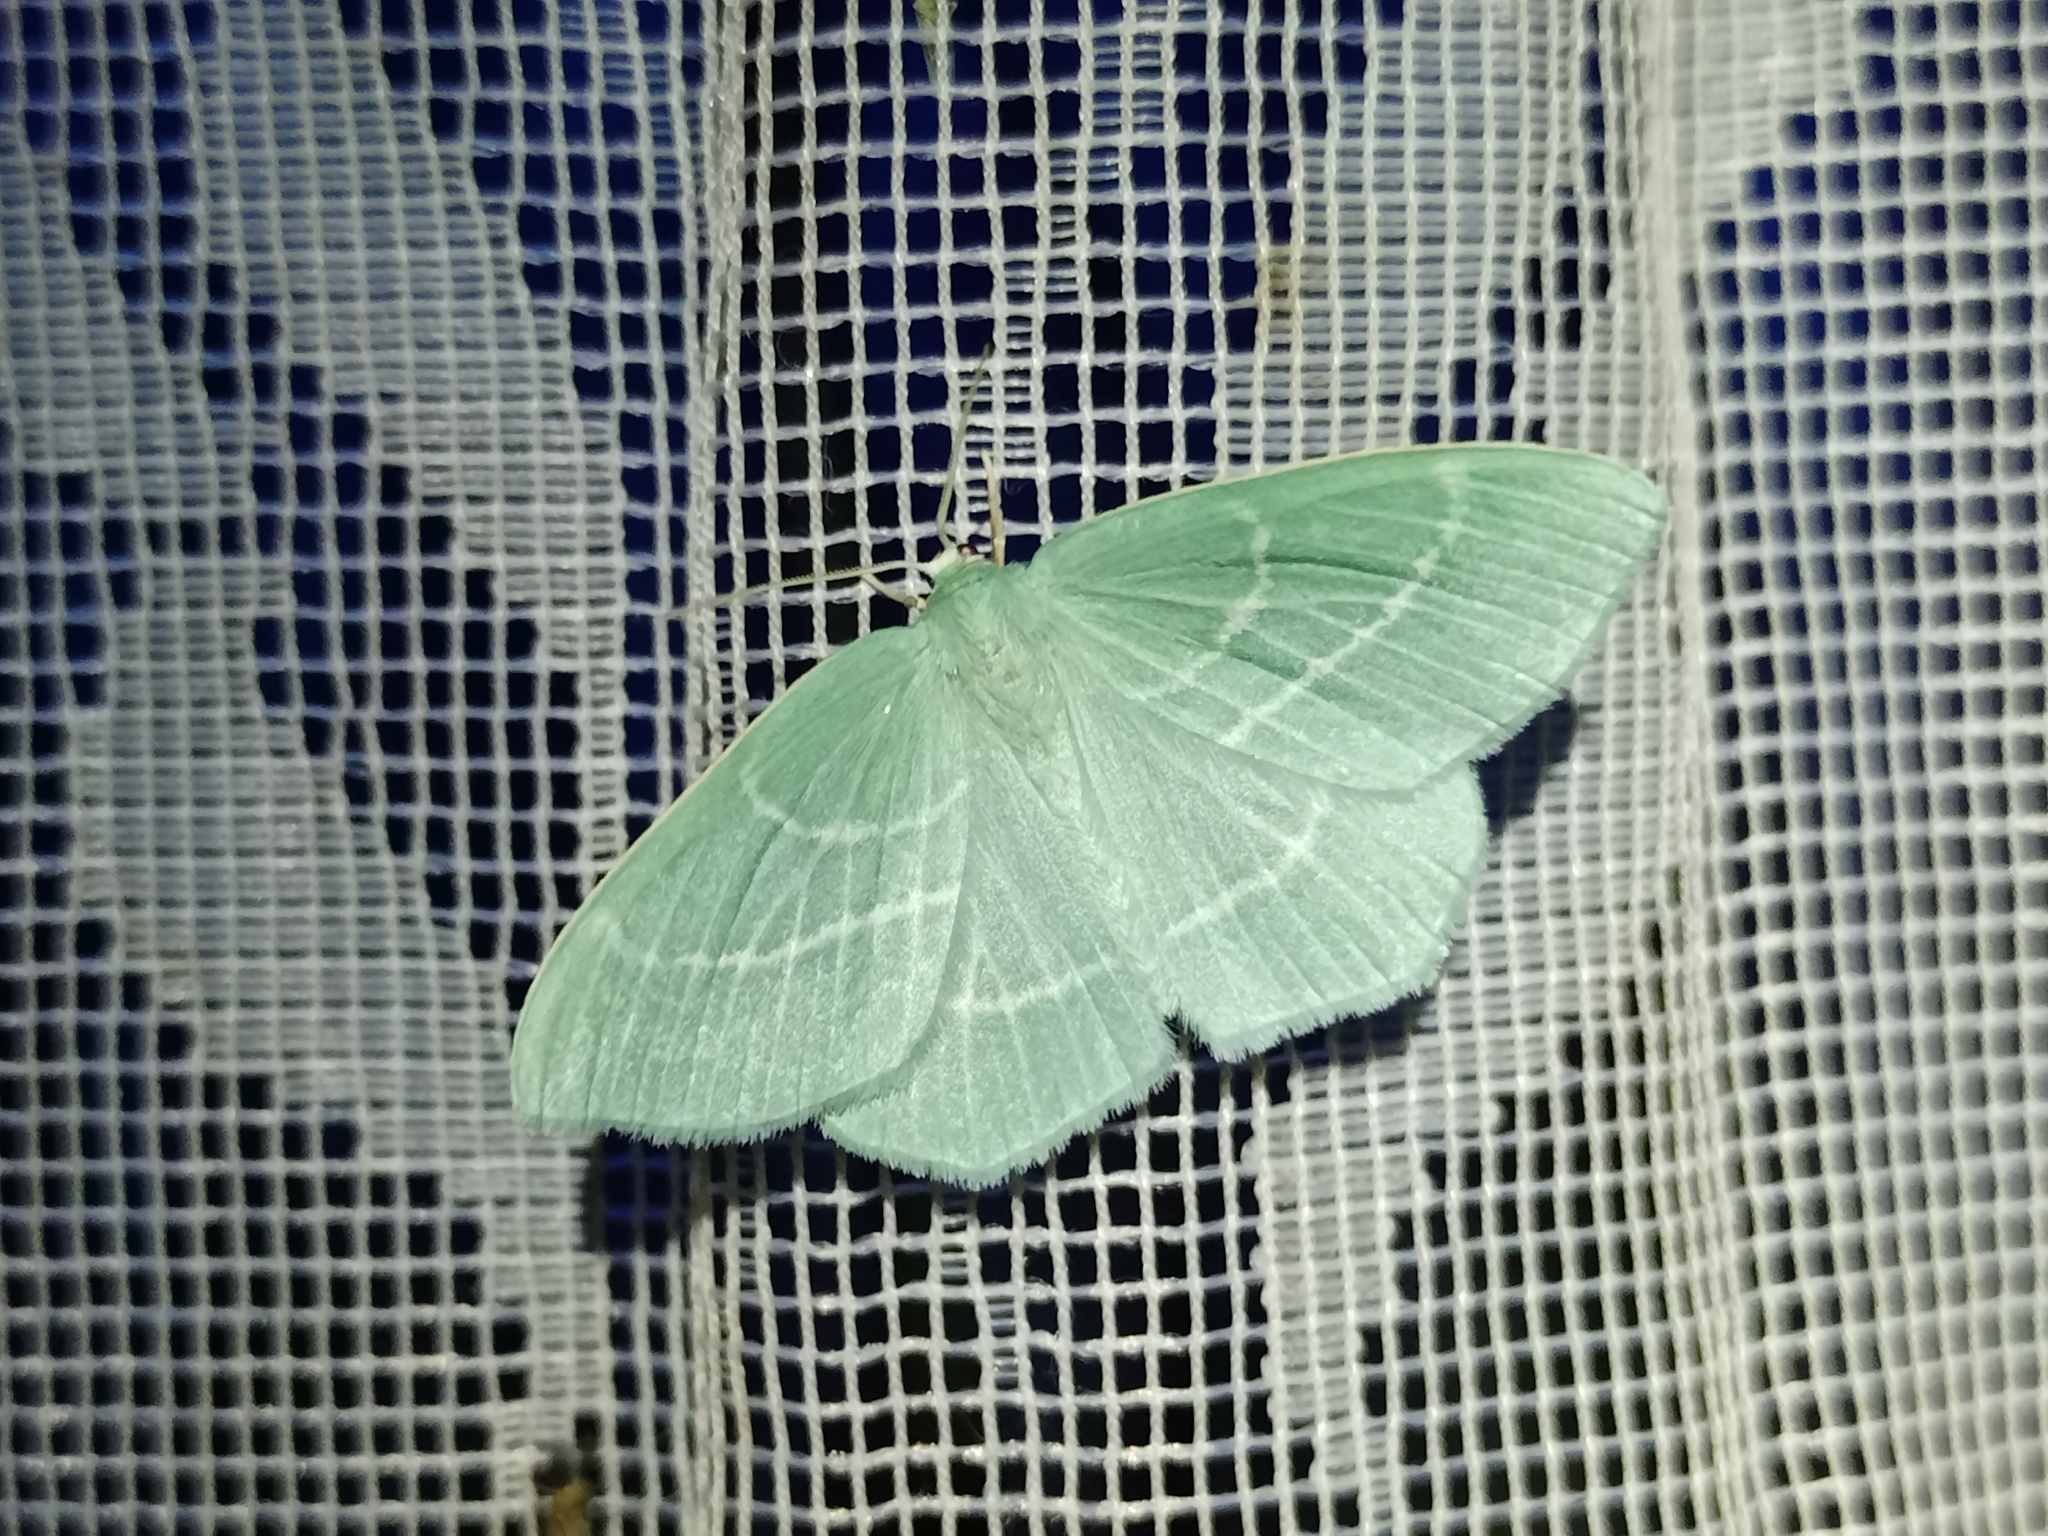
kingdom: Animalia
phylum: Arthropoda
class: Insecta
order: Lepidoptera
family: Geometridae
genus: Hemistola
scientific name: Hemistola chrysoprasaria
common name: Small emerald
